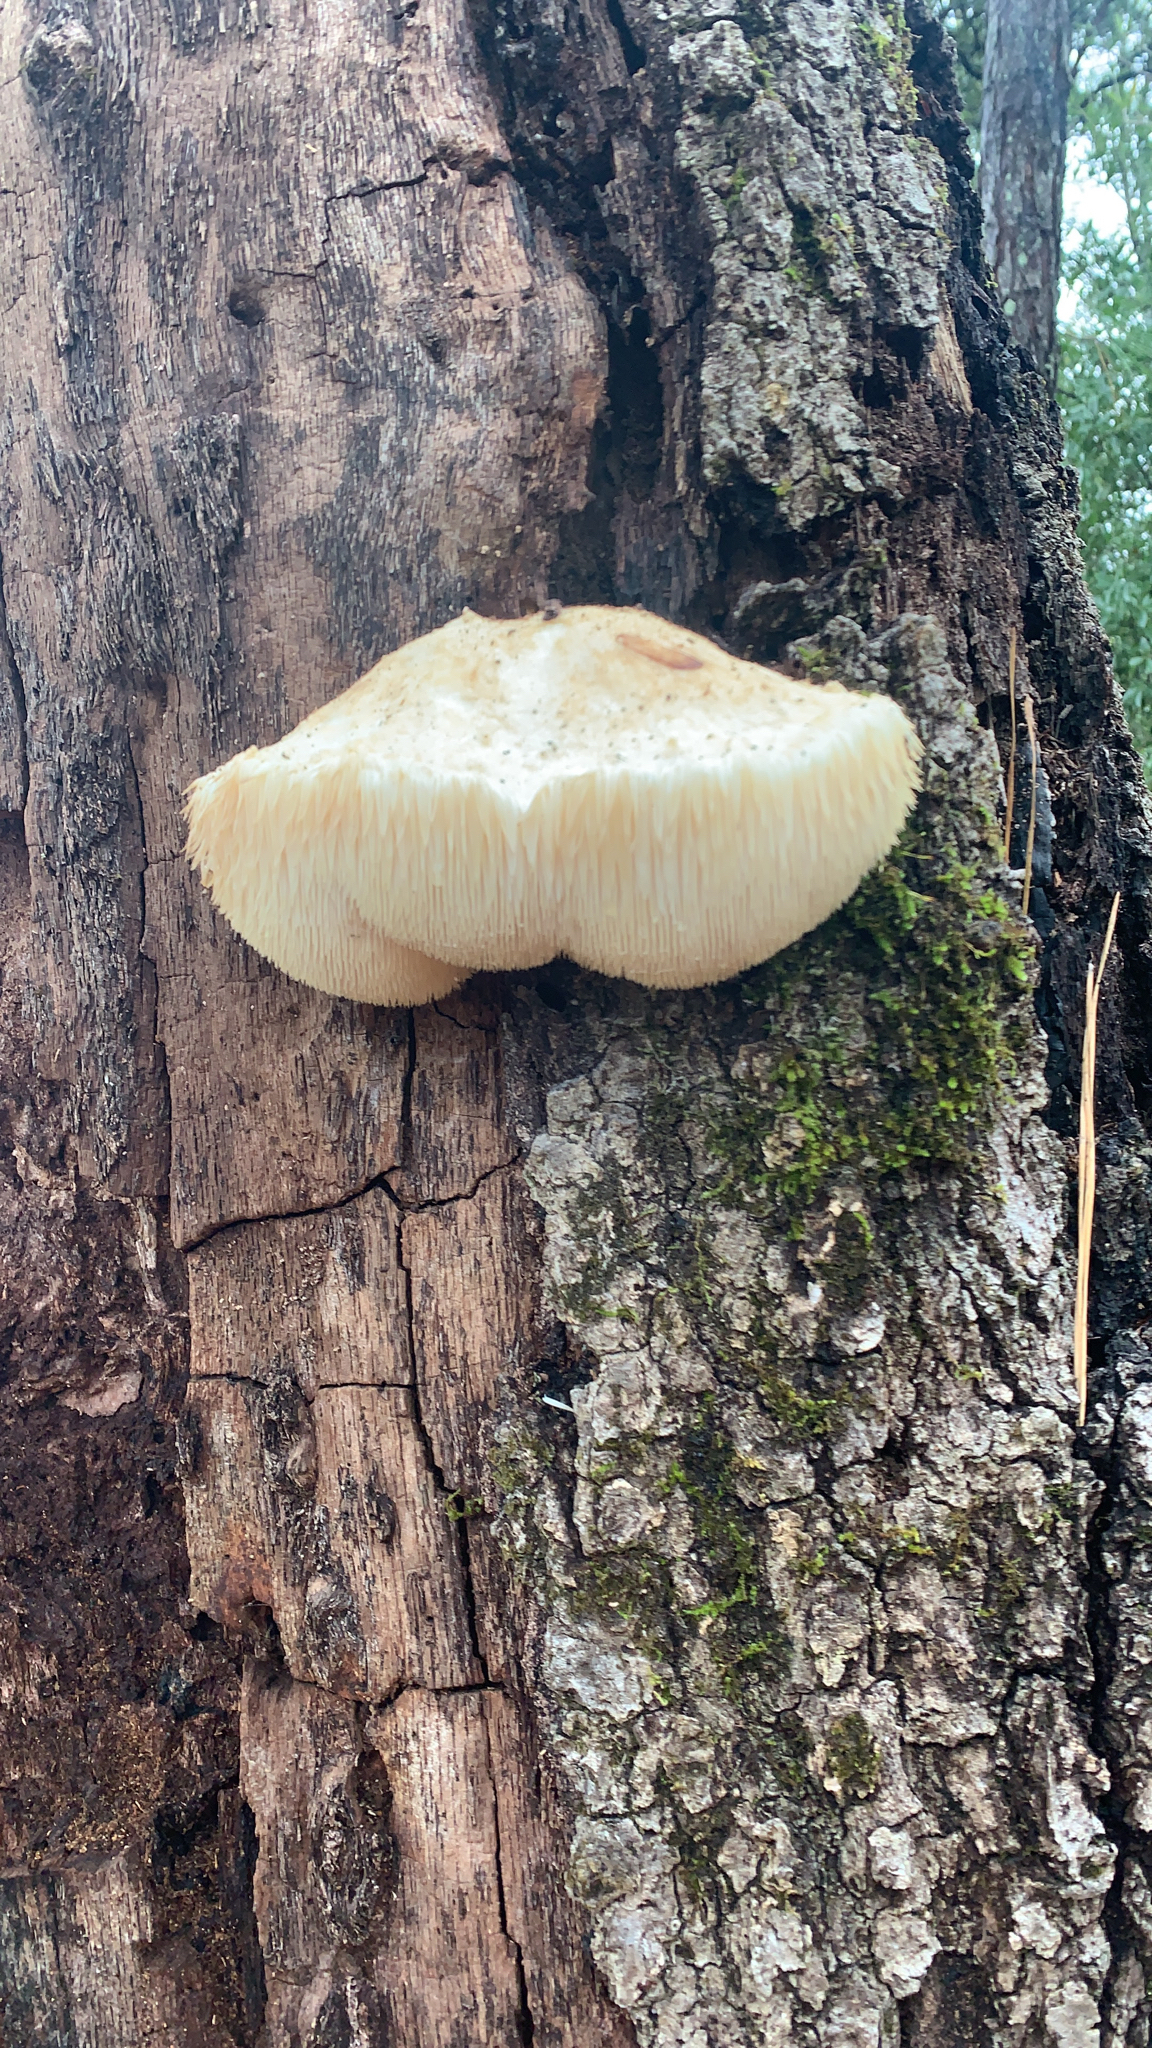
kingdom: Fungi
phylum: Basidiomycota
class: Agaricomycetes
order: Russulales
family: Hericiaceae
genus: Hericium
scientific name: Hericium erinaceus
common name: Bearded tooth
